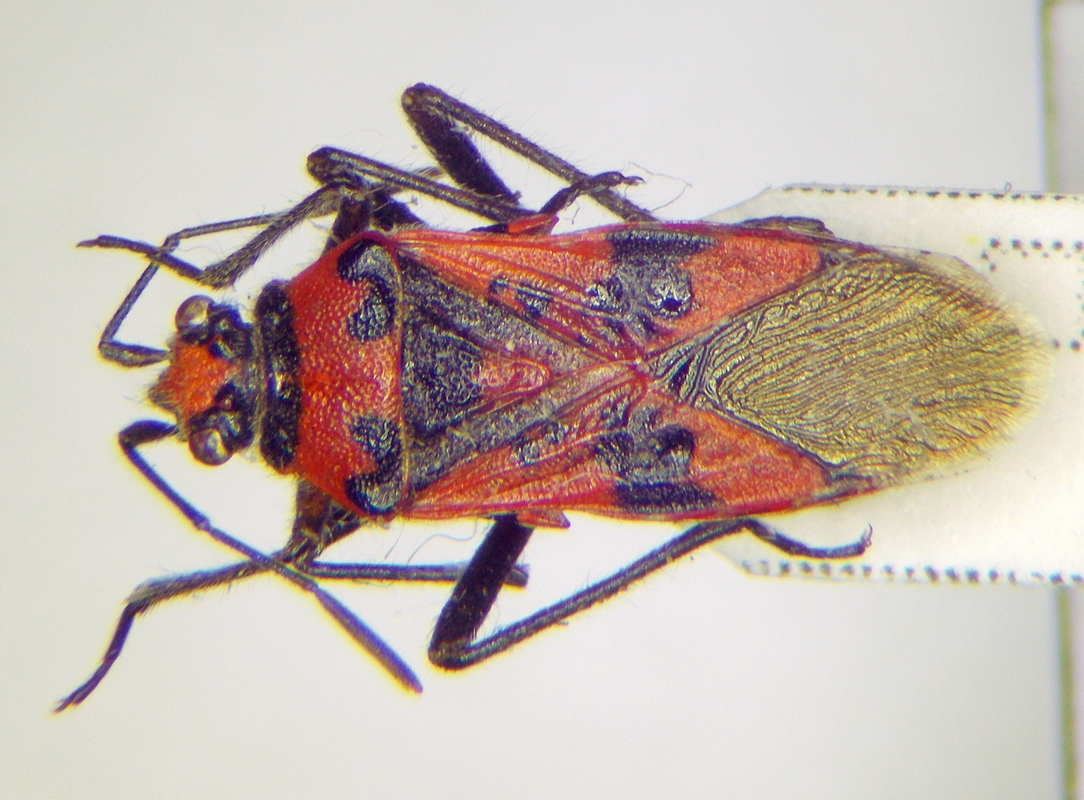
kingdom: Animalia
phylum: Arthropoda
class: Insecta
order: Hemiptera
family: Rhopalidae
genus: Corizus
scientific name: Corizus hyoscyami
